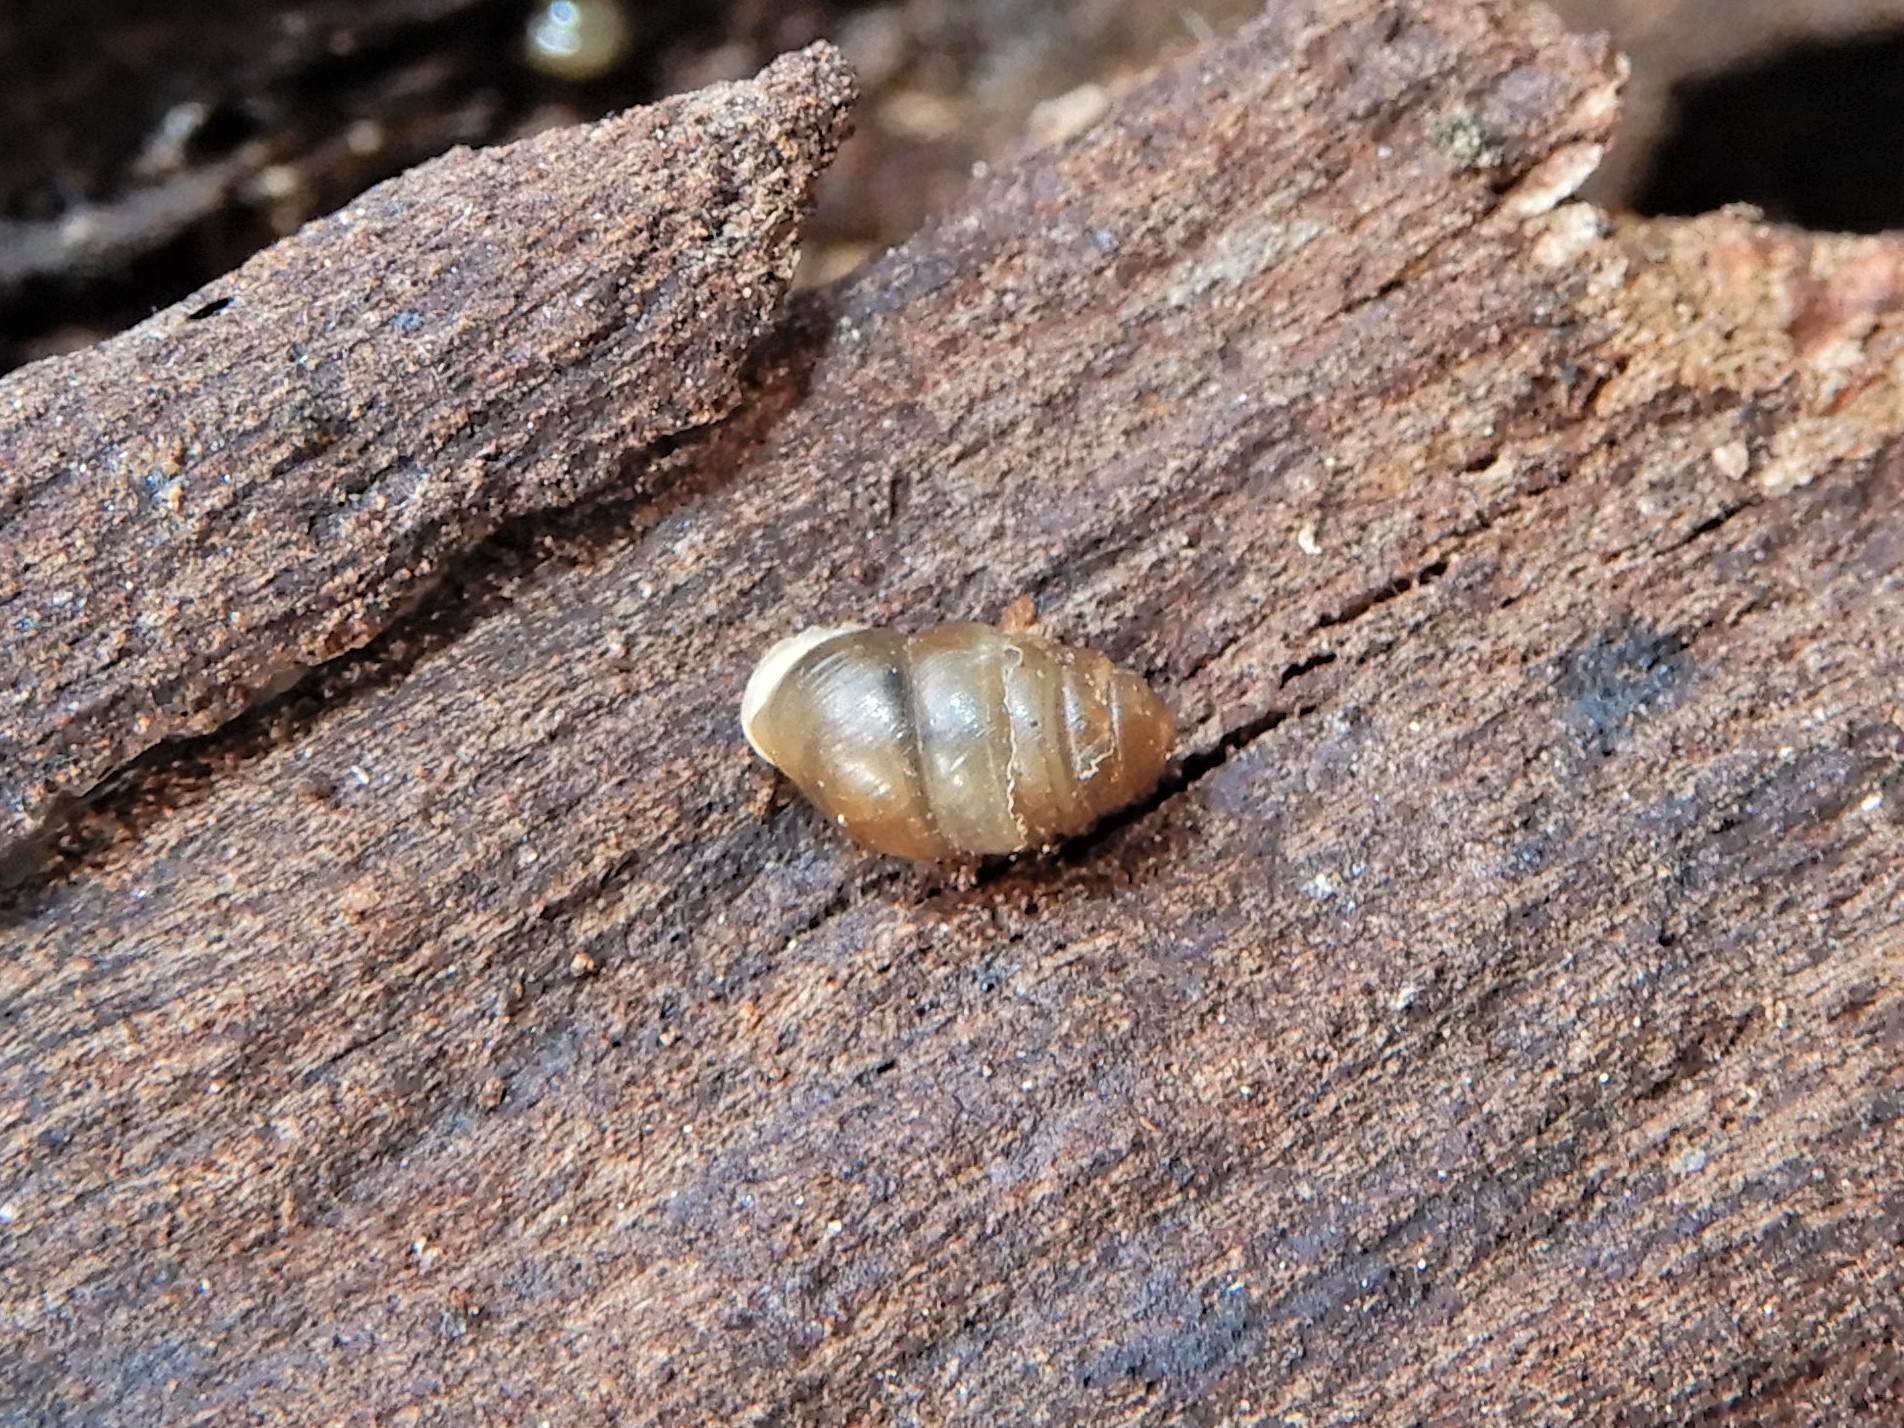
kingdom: Animalia
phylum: Mollusca
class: Gastropoda
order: Stylommatophora
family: Lauriidae
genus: Lauria
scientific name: Lauria cylindracea
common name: Common chrysalis snail
